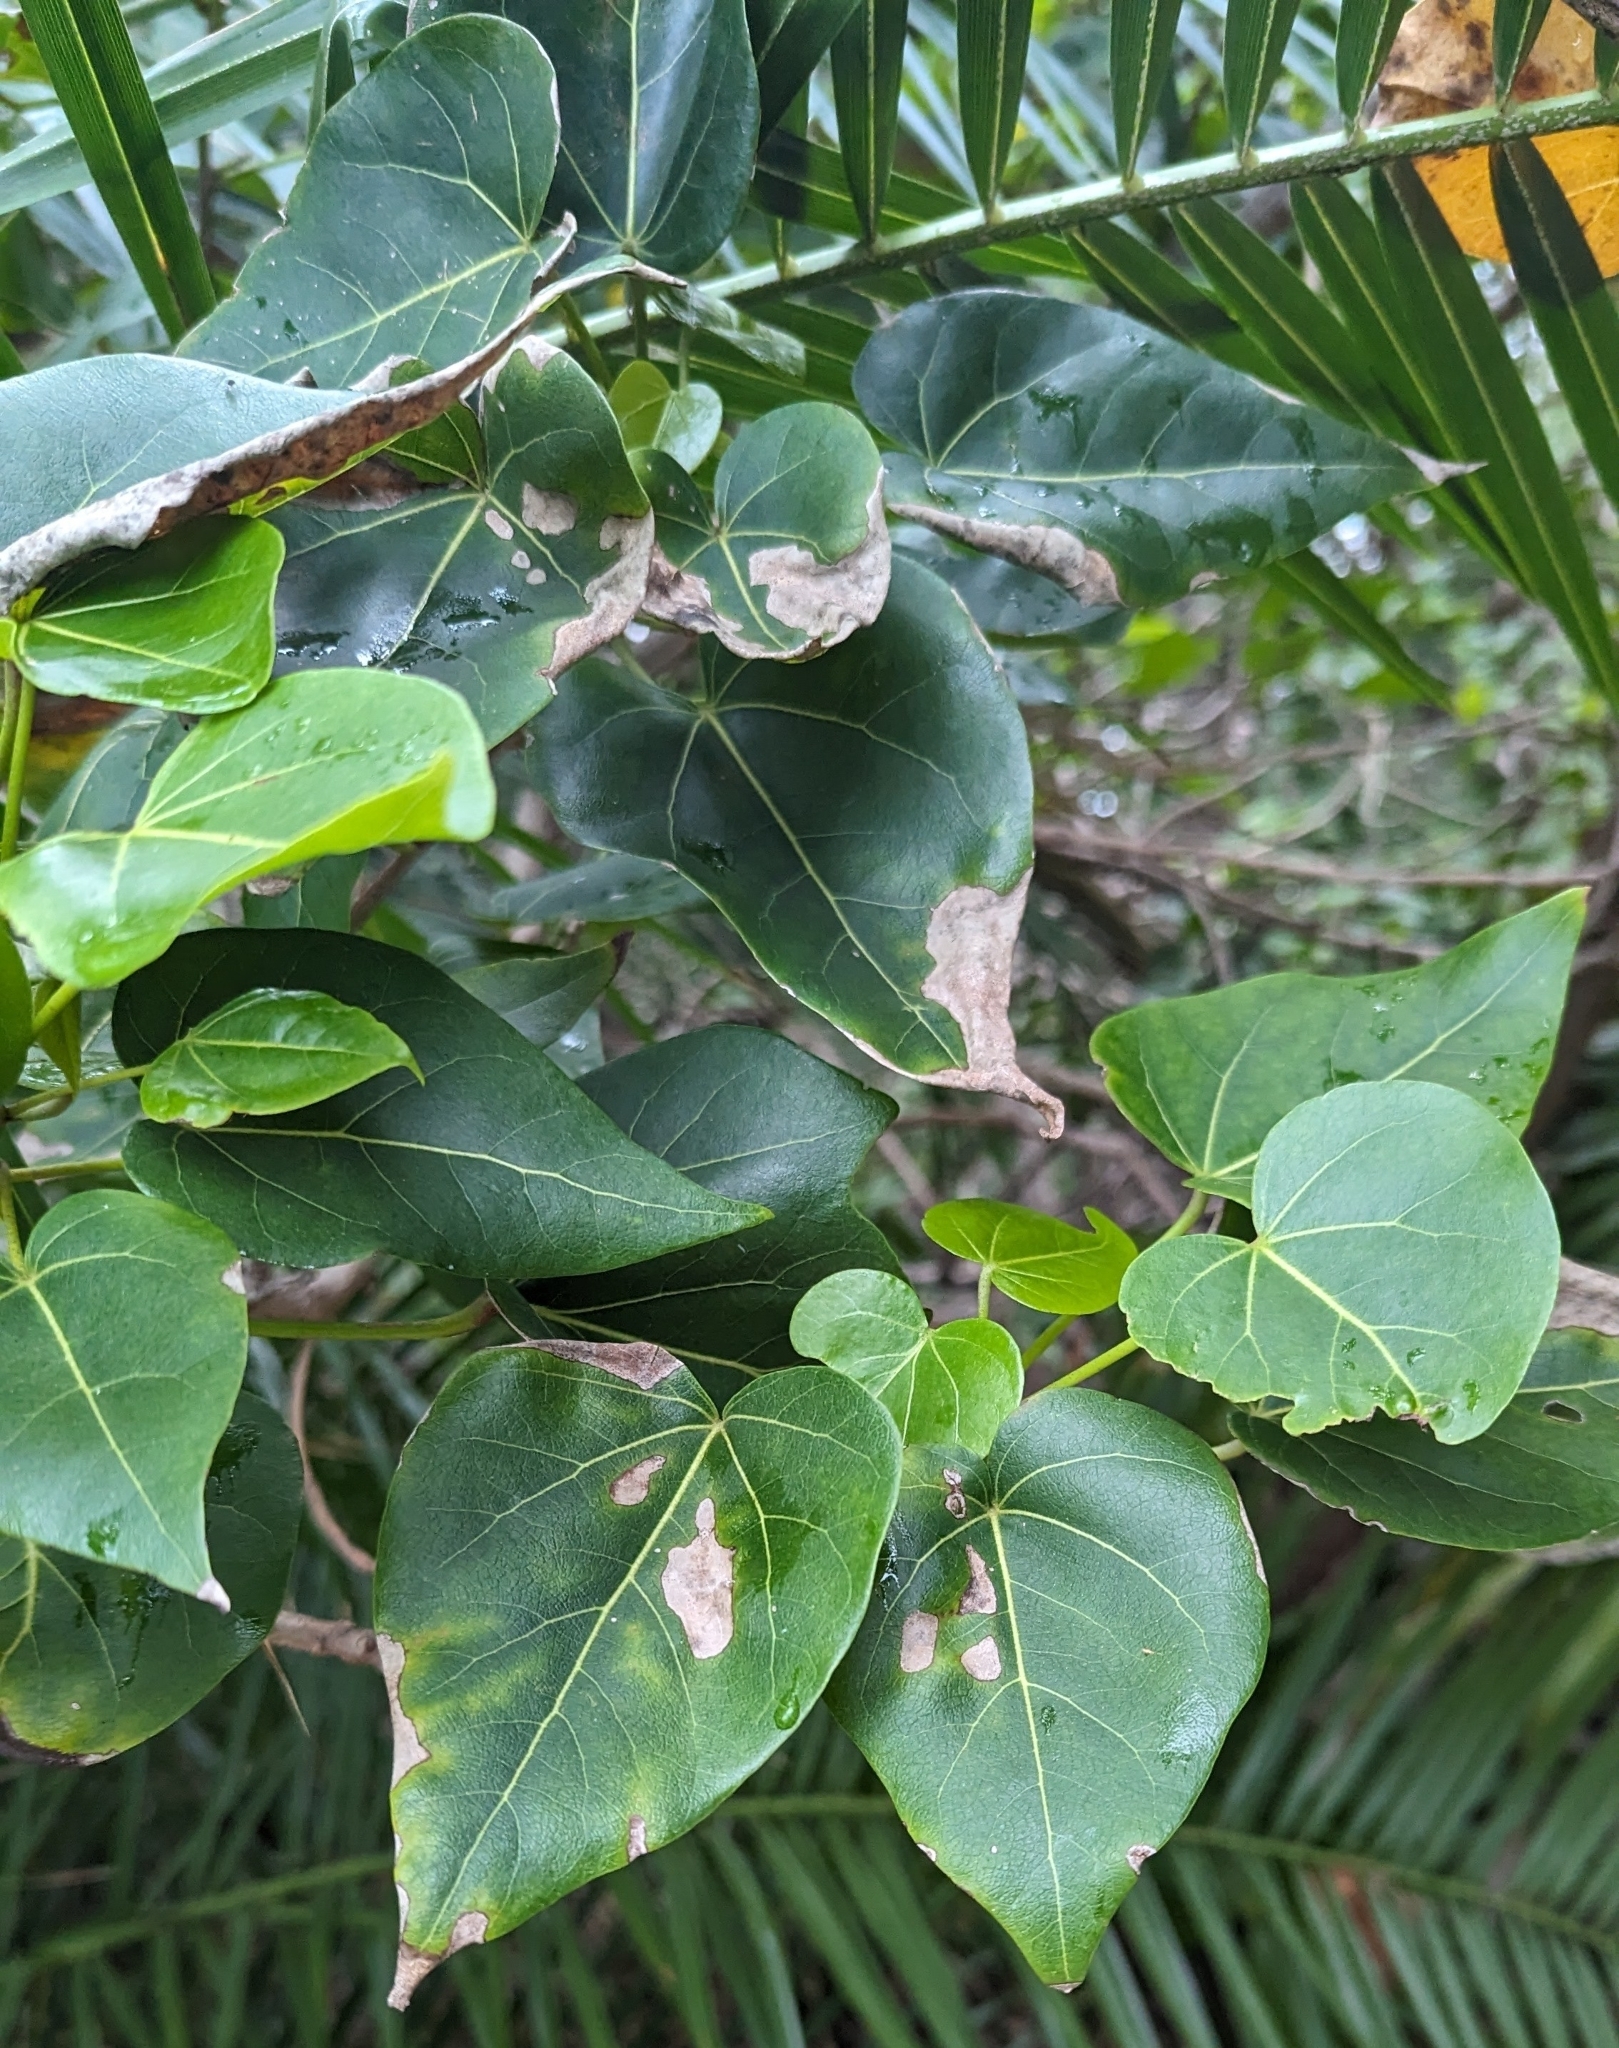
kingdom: Plantae
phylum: Tracheophyta
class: Magnoliopsida
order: Malvales
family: Malvaceae
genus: Thespesia
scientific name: Thespesia populnea
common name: Seaside mahoe
